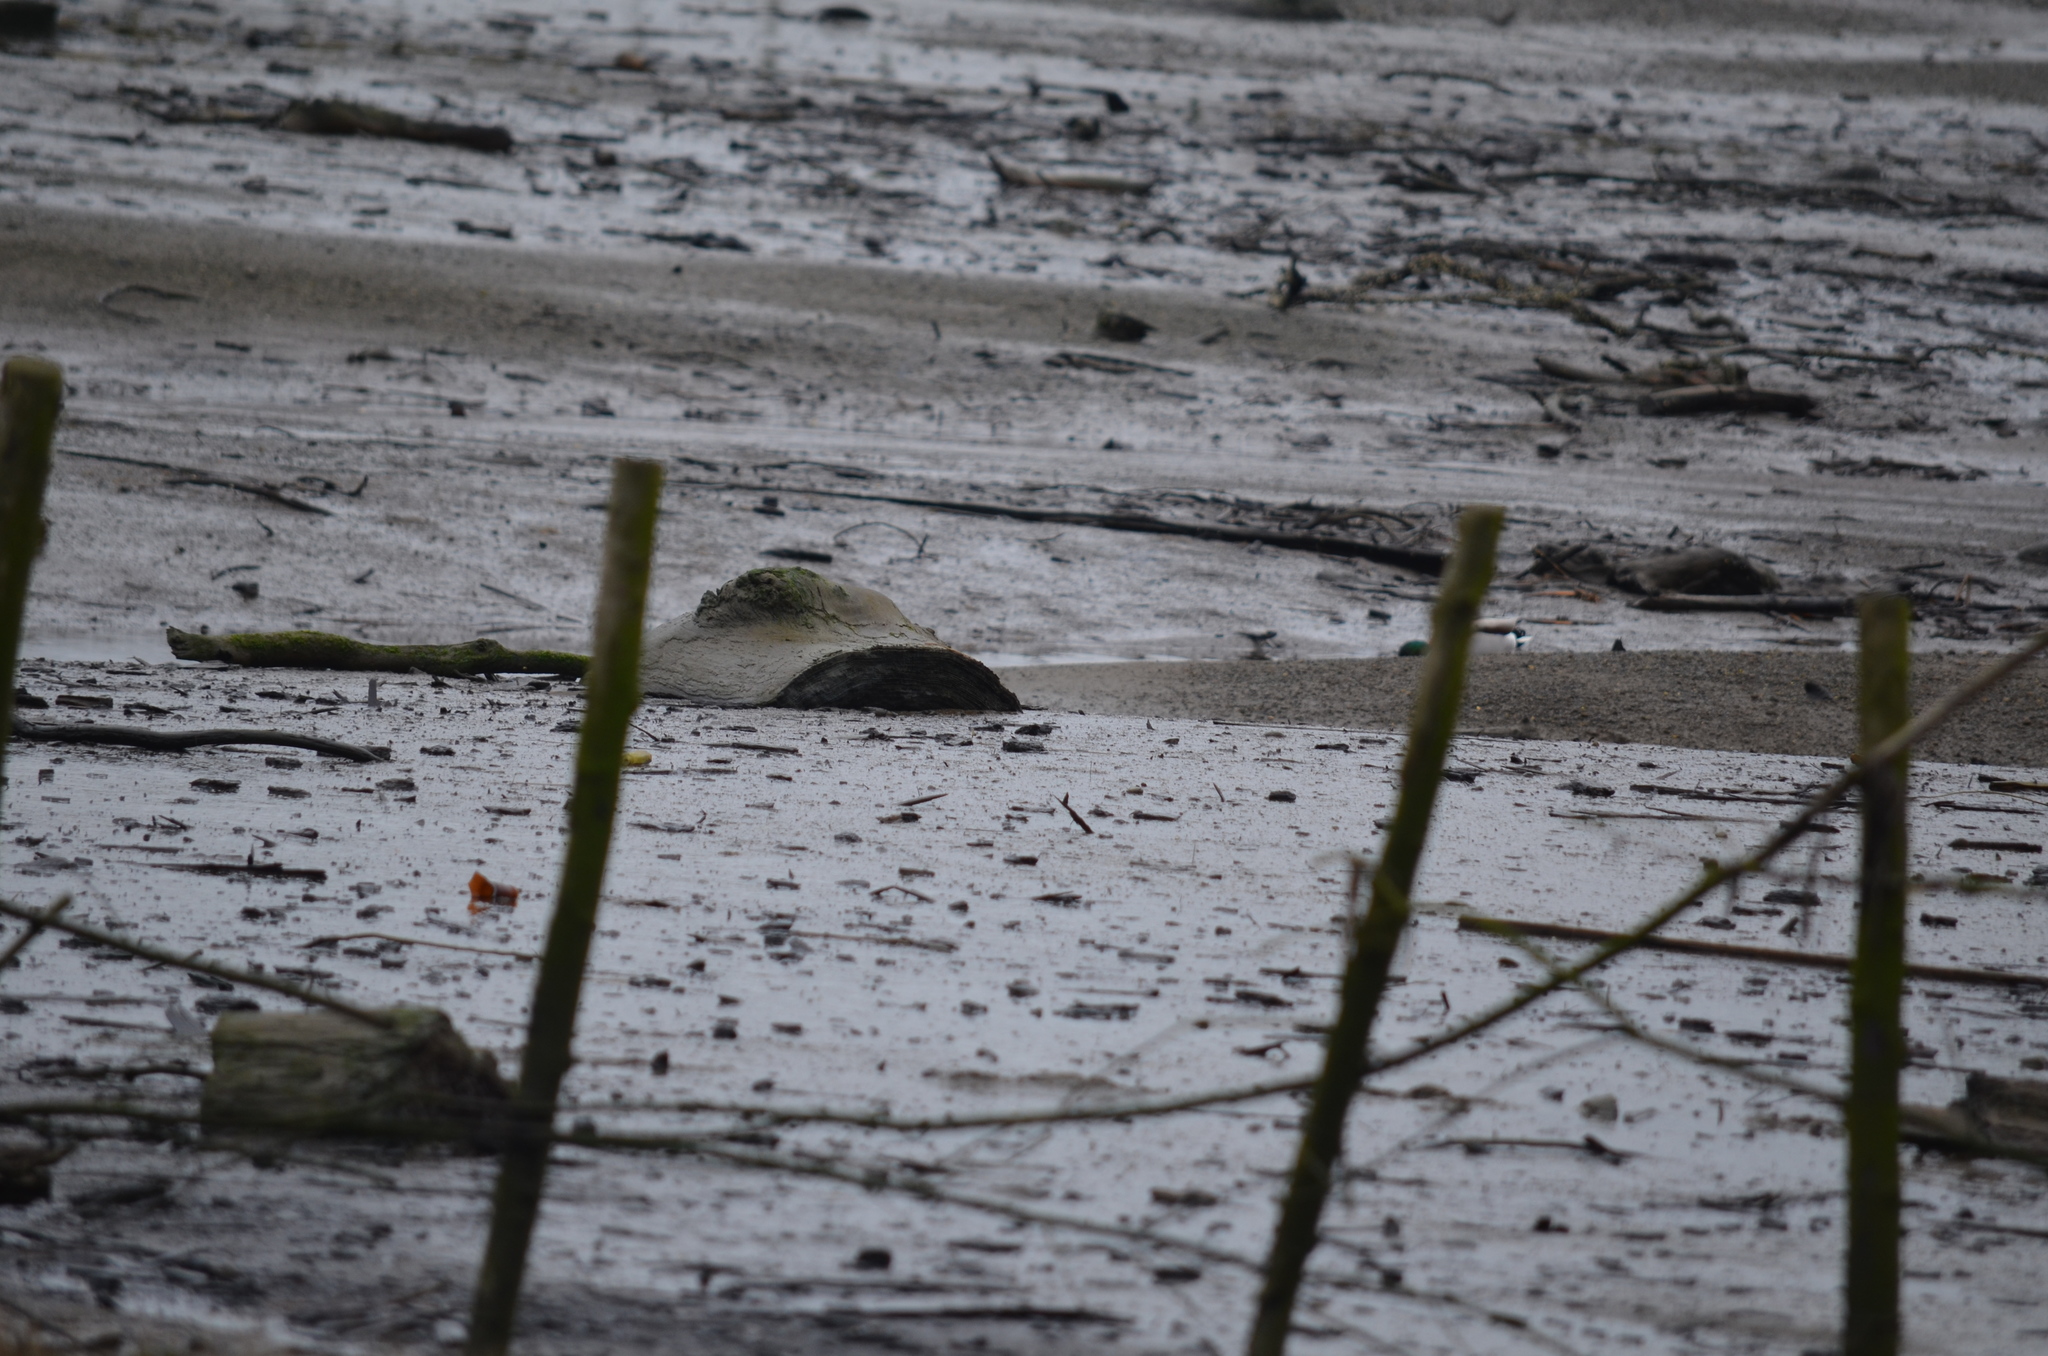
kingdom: Animalia
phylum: Chordata
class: Aves
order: Anseriformes
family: Anatidae
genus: Anas
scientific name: Anas platyrhynchos
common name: Mallard
